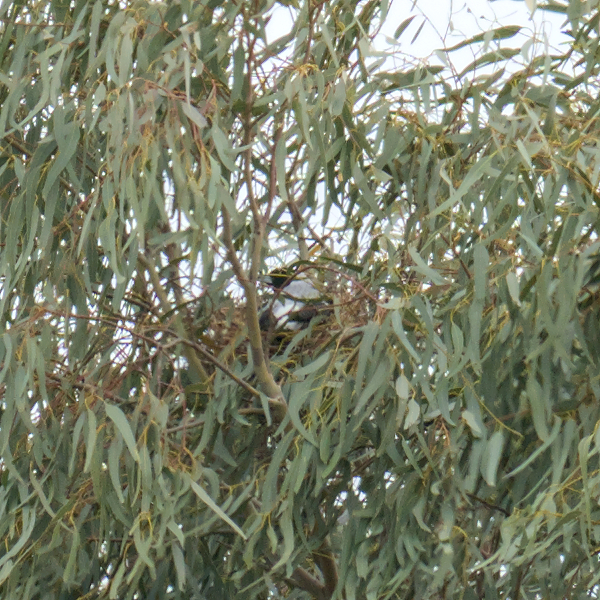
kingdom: Animalia
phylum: Chordata
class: Aves
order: Passeriformes
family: Cracticidae
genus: Gymnorhina
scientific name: Gymnorhina tibicen
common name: Australian magpie
